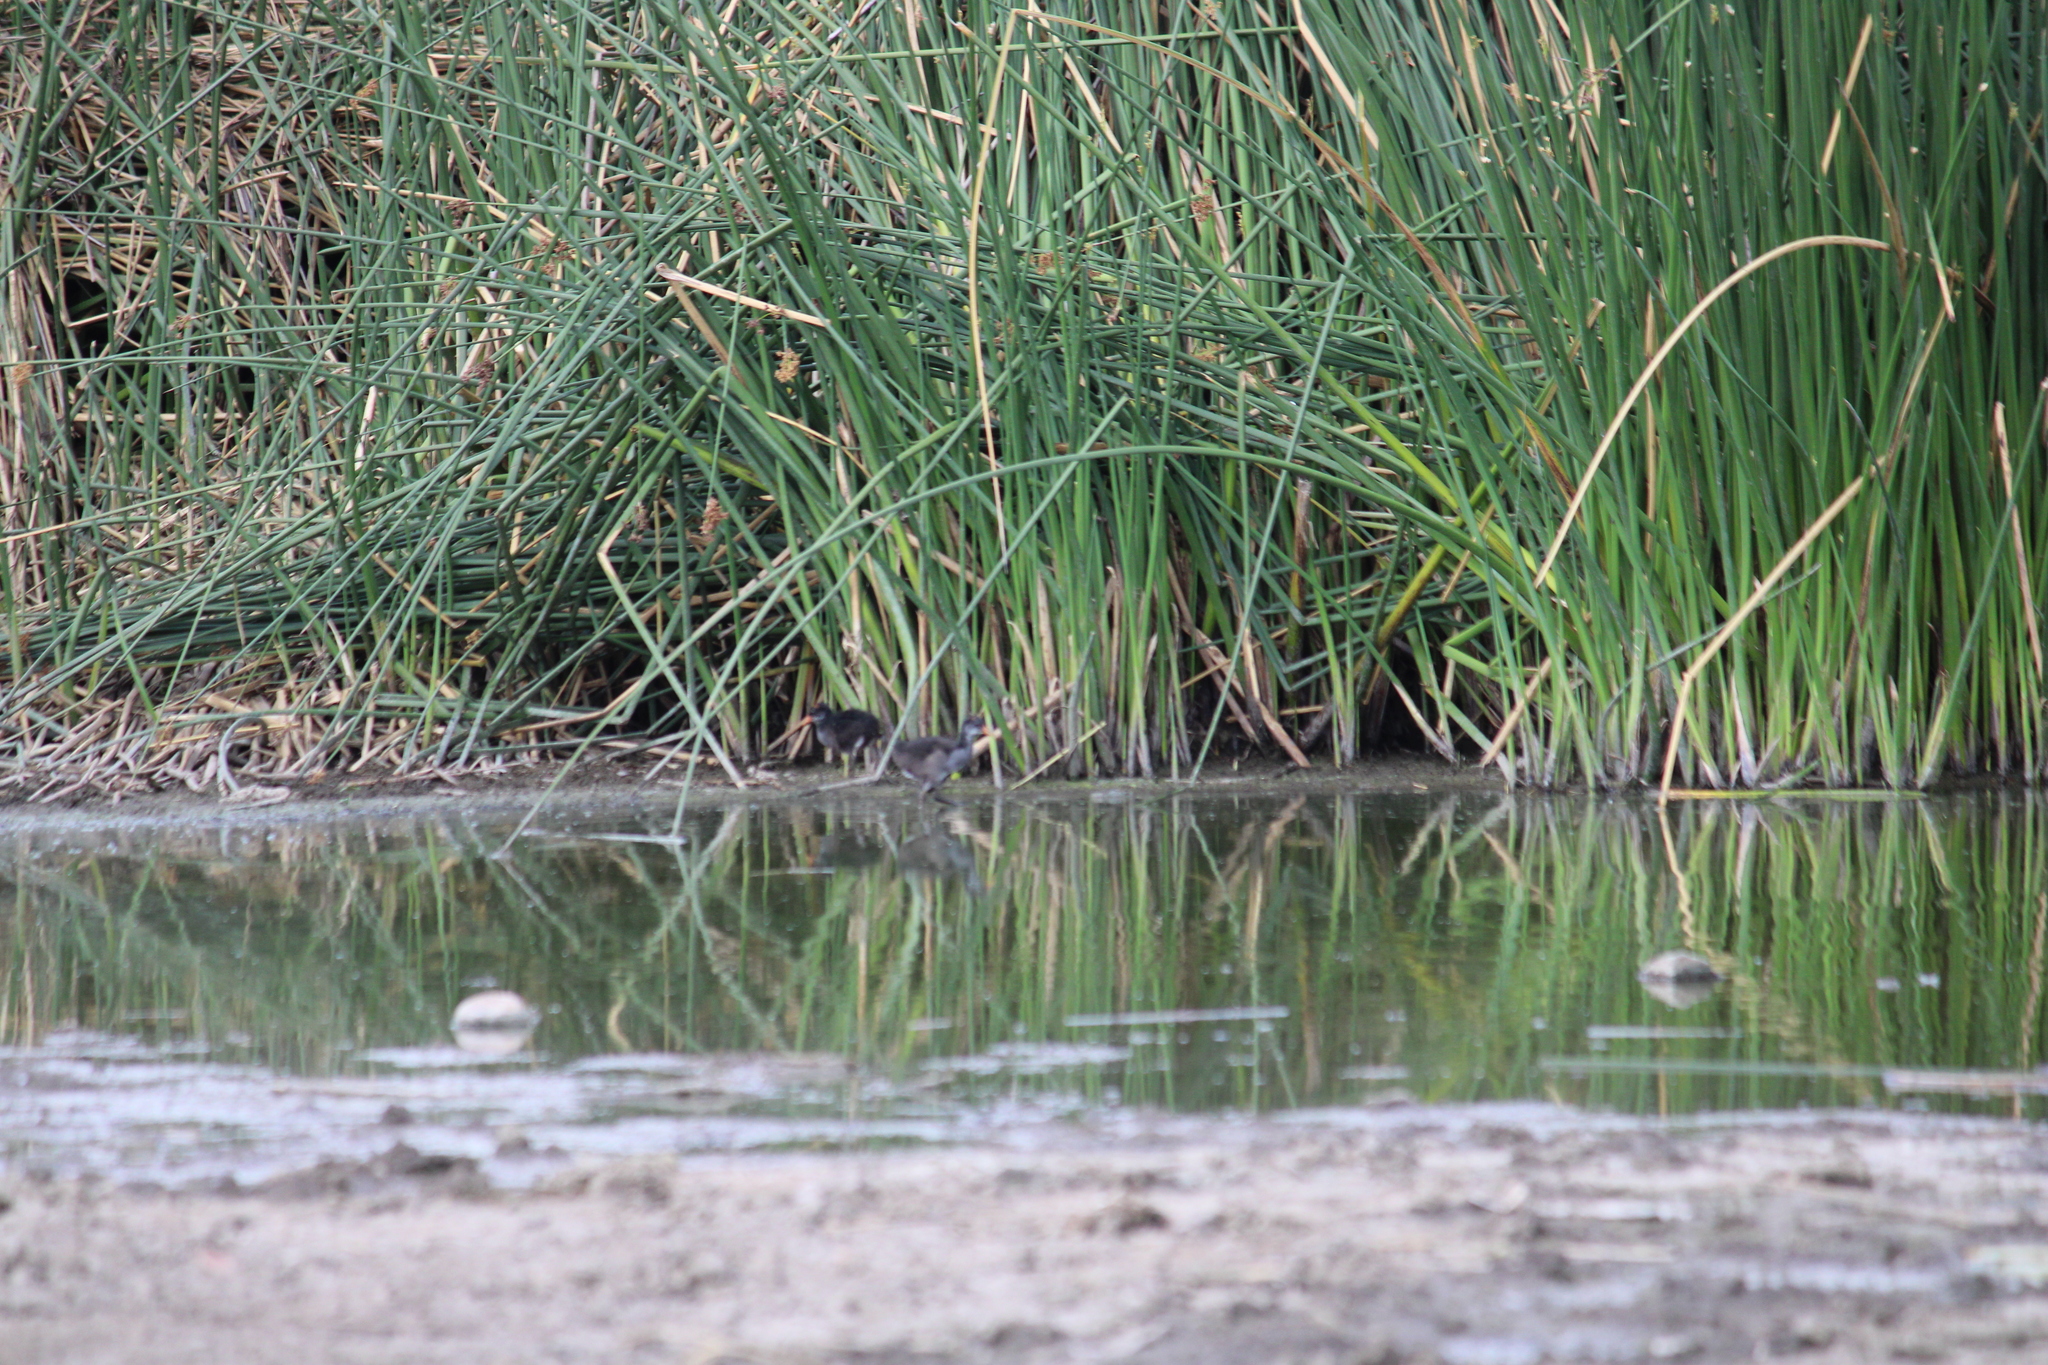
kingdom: Animalia
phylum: Chordata
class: Aves
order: Gruiformes
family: Rallidae
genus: Gallinula
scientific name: Gallinula chloropus
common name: Common moorhen
